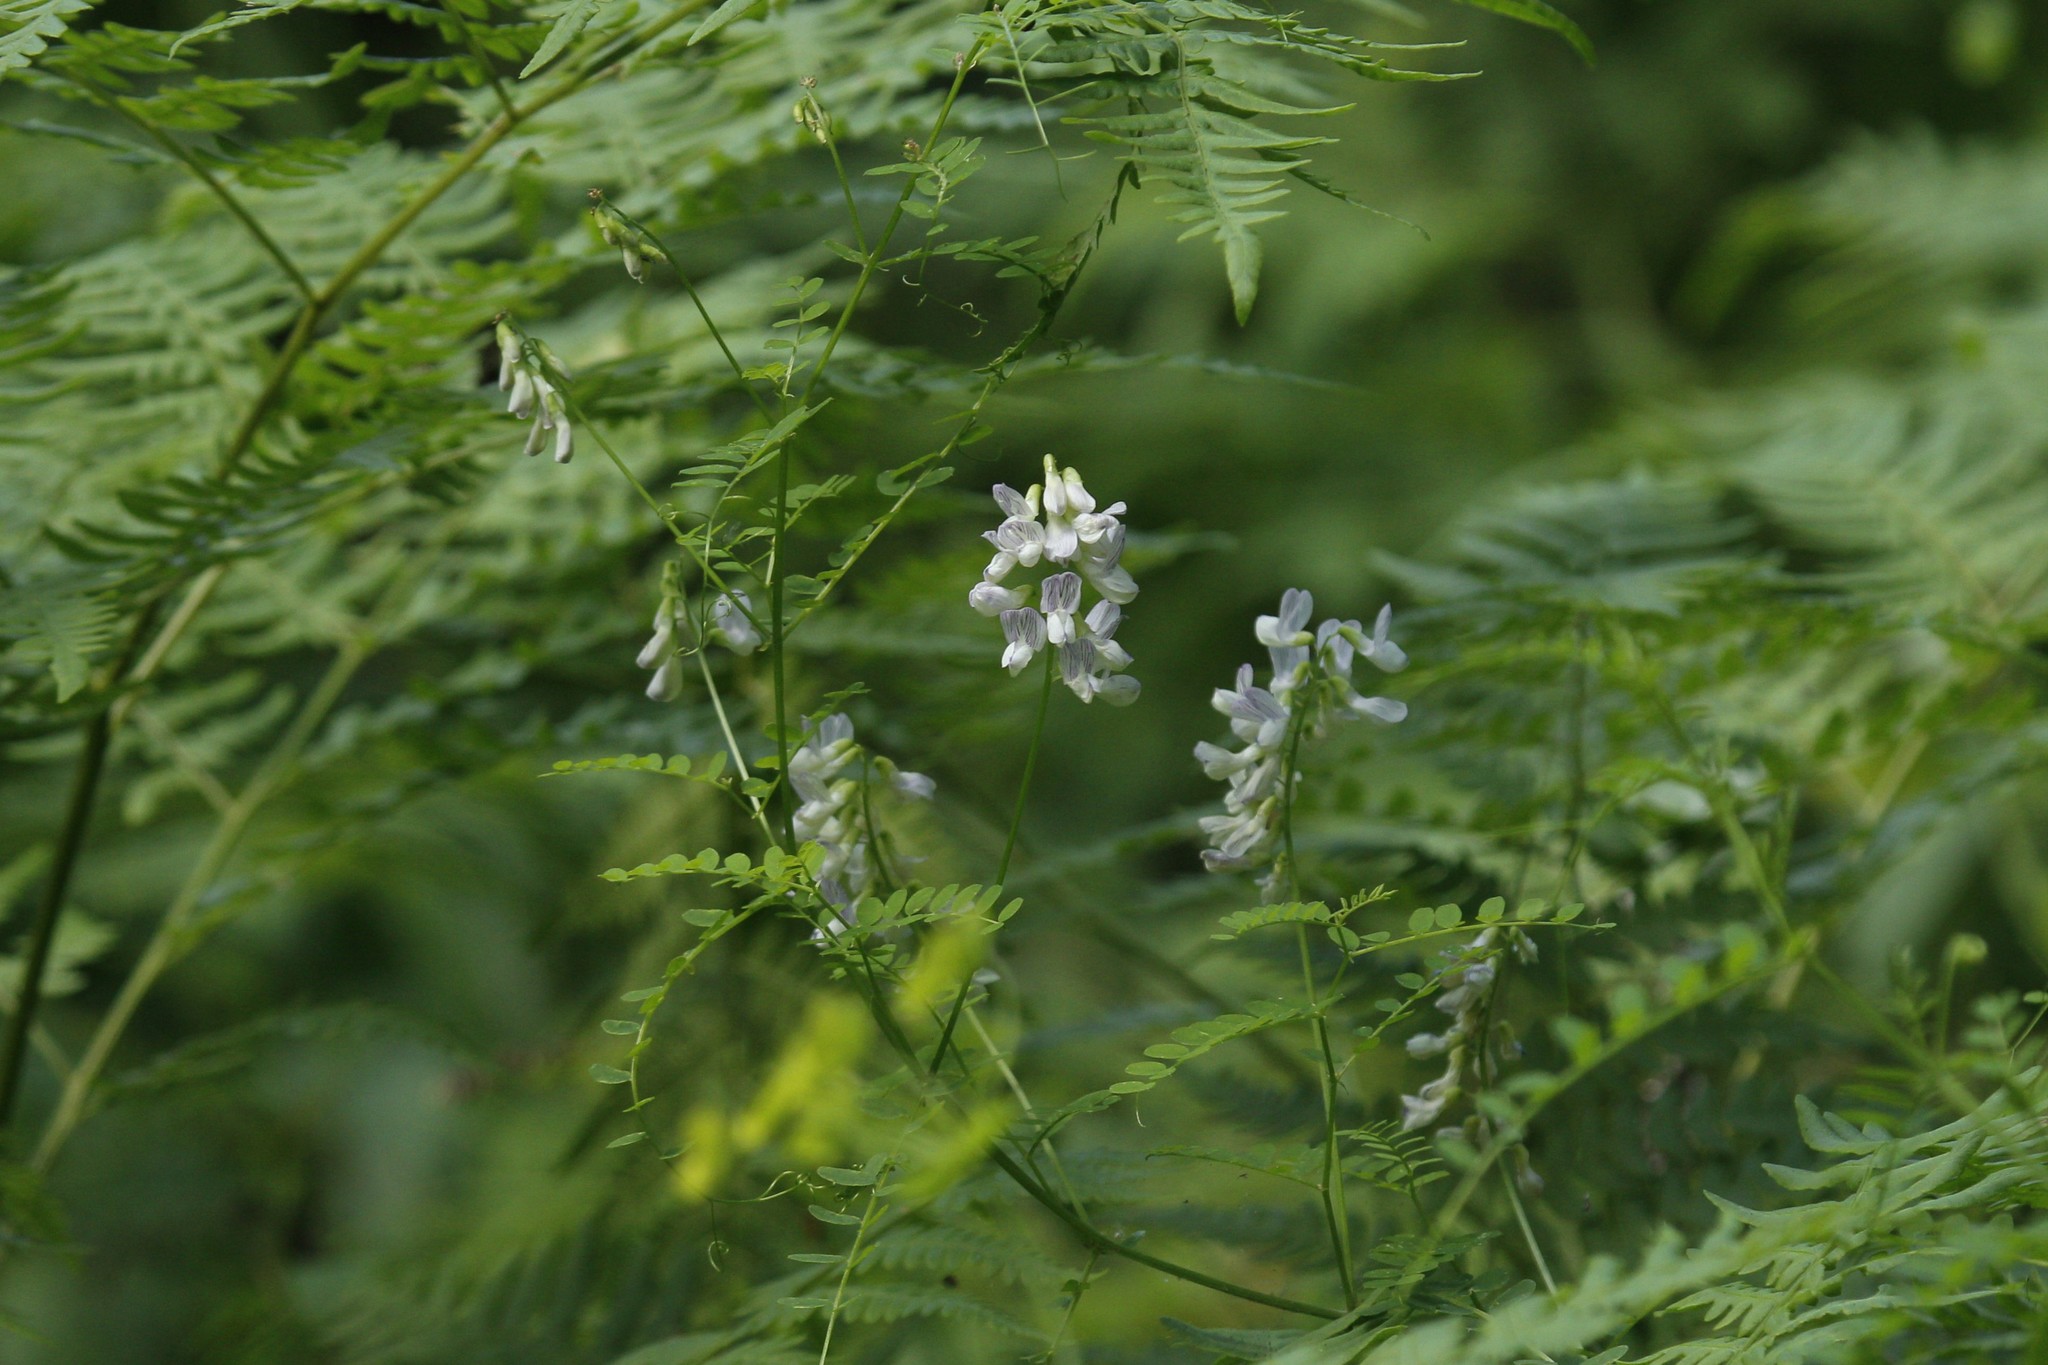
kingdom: Plantae
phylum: Tracheophyta
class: Magnoliopsida
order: Fabales
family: Fabaceae
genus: Vicia
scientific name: Vicia sylvatica
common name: Wood vetch
